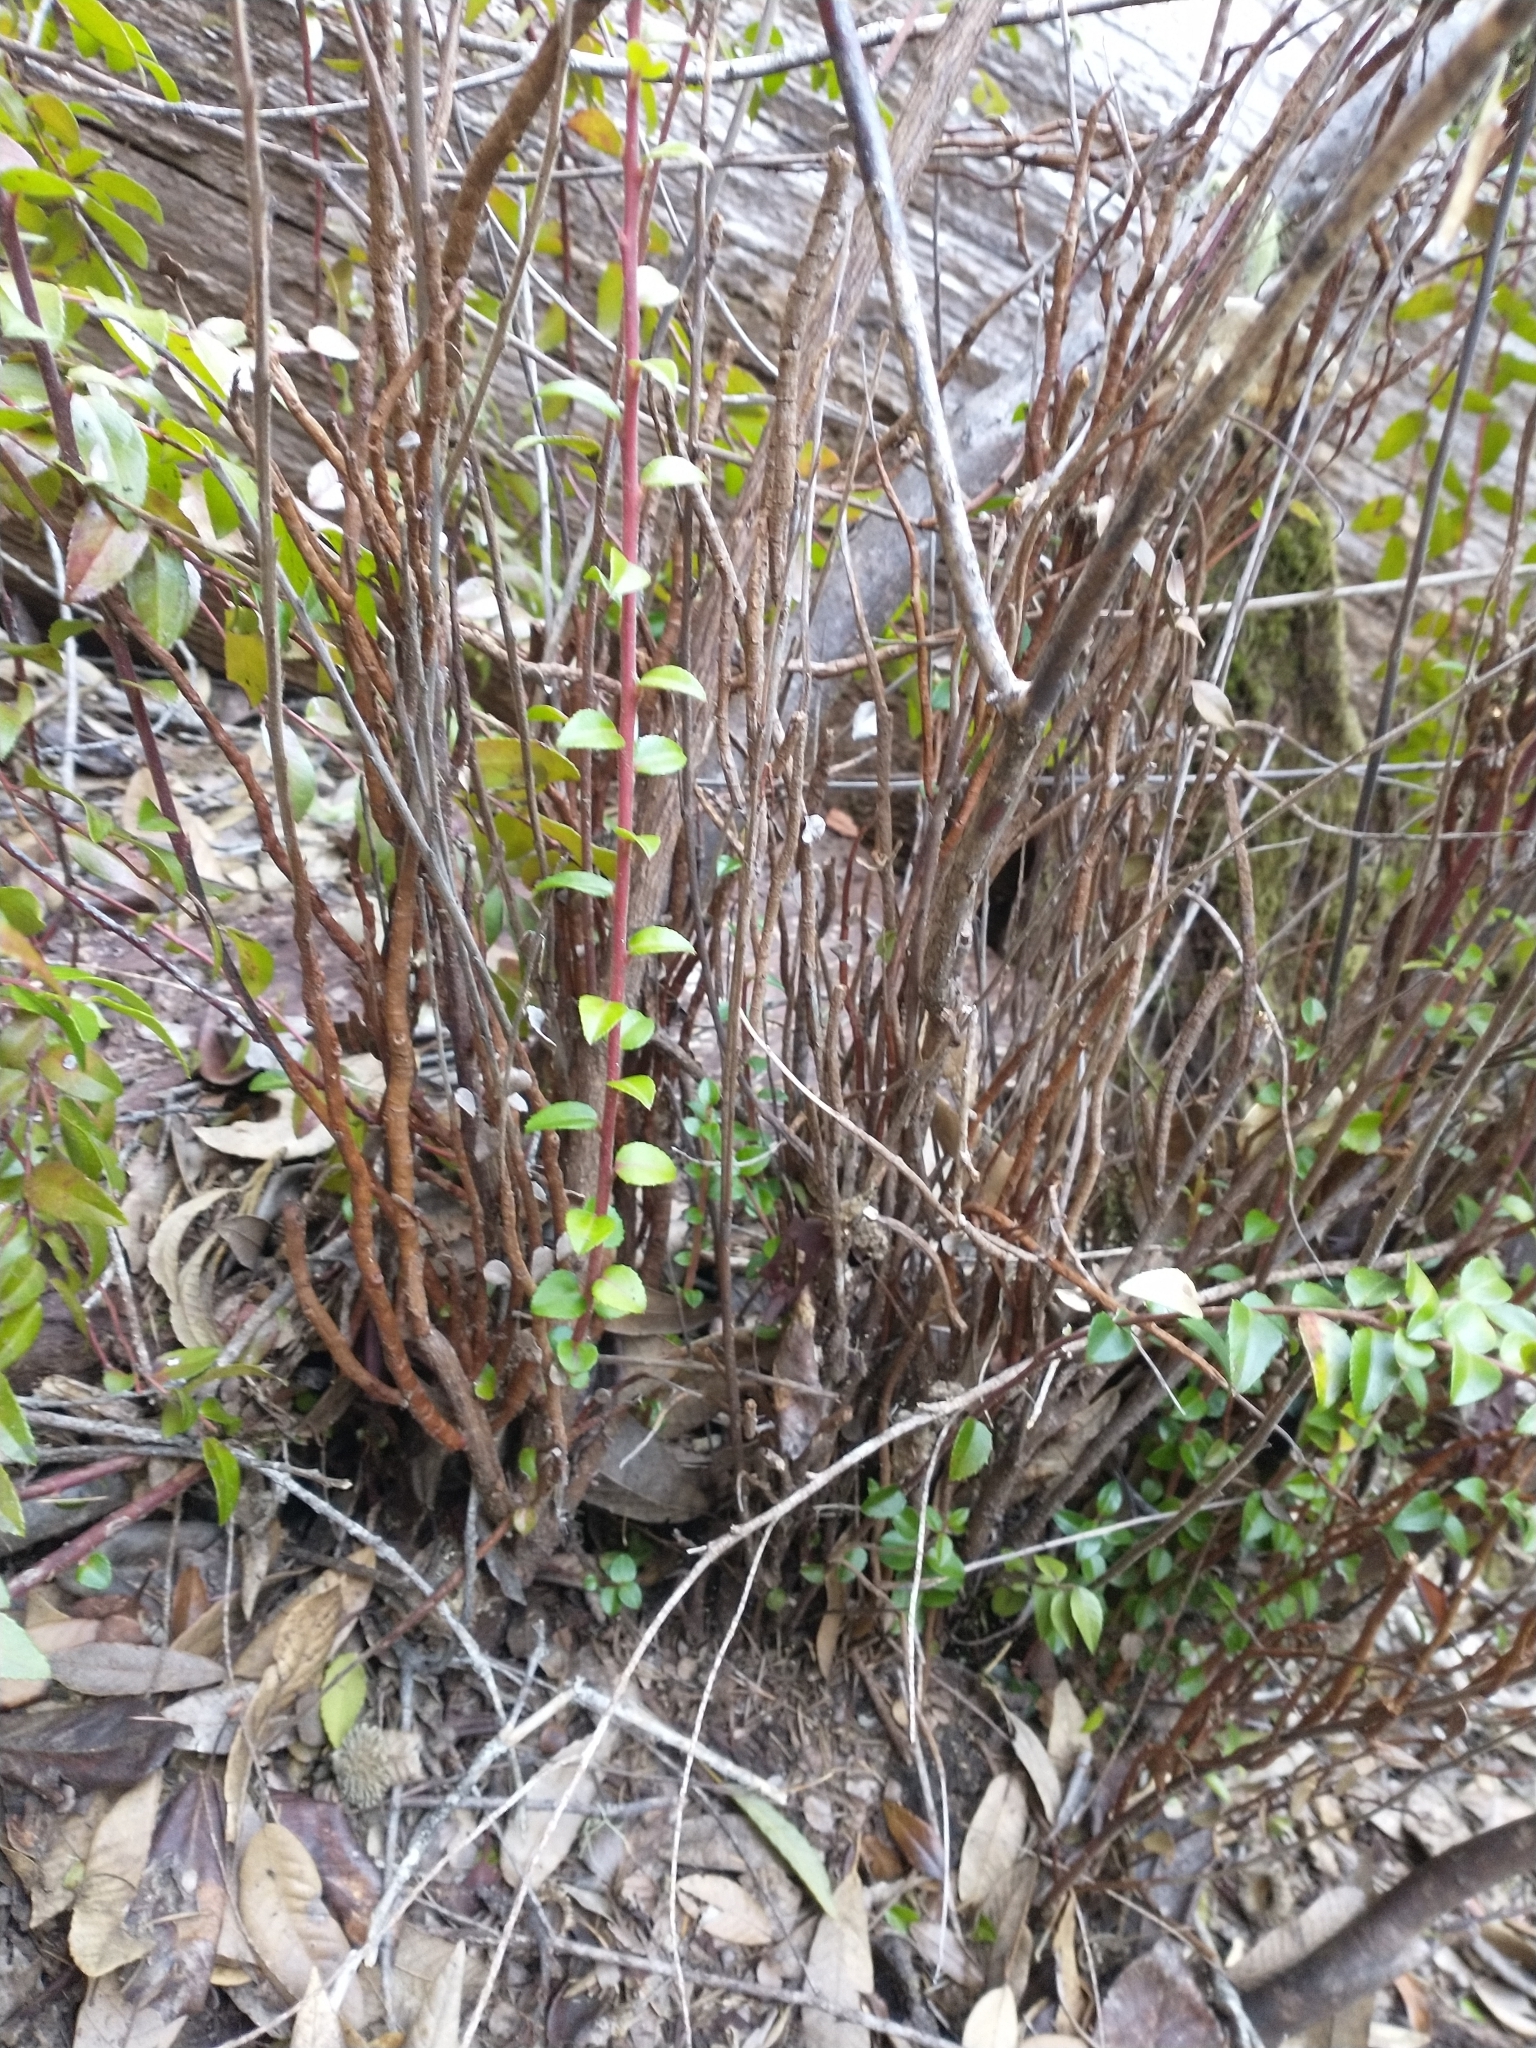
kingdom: Plantae
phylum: Tracheophyta
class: Magnoliopsida
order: Ericales
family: Ericaceae
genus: Vaccinium
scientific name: Vaccinium ovatum
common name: California-huckleberry
